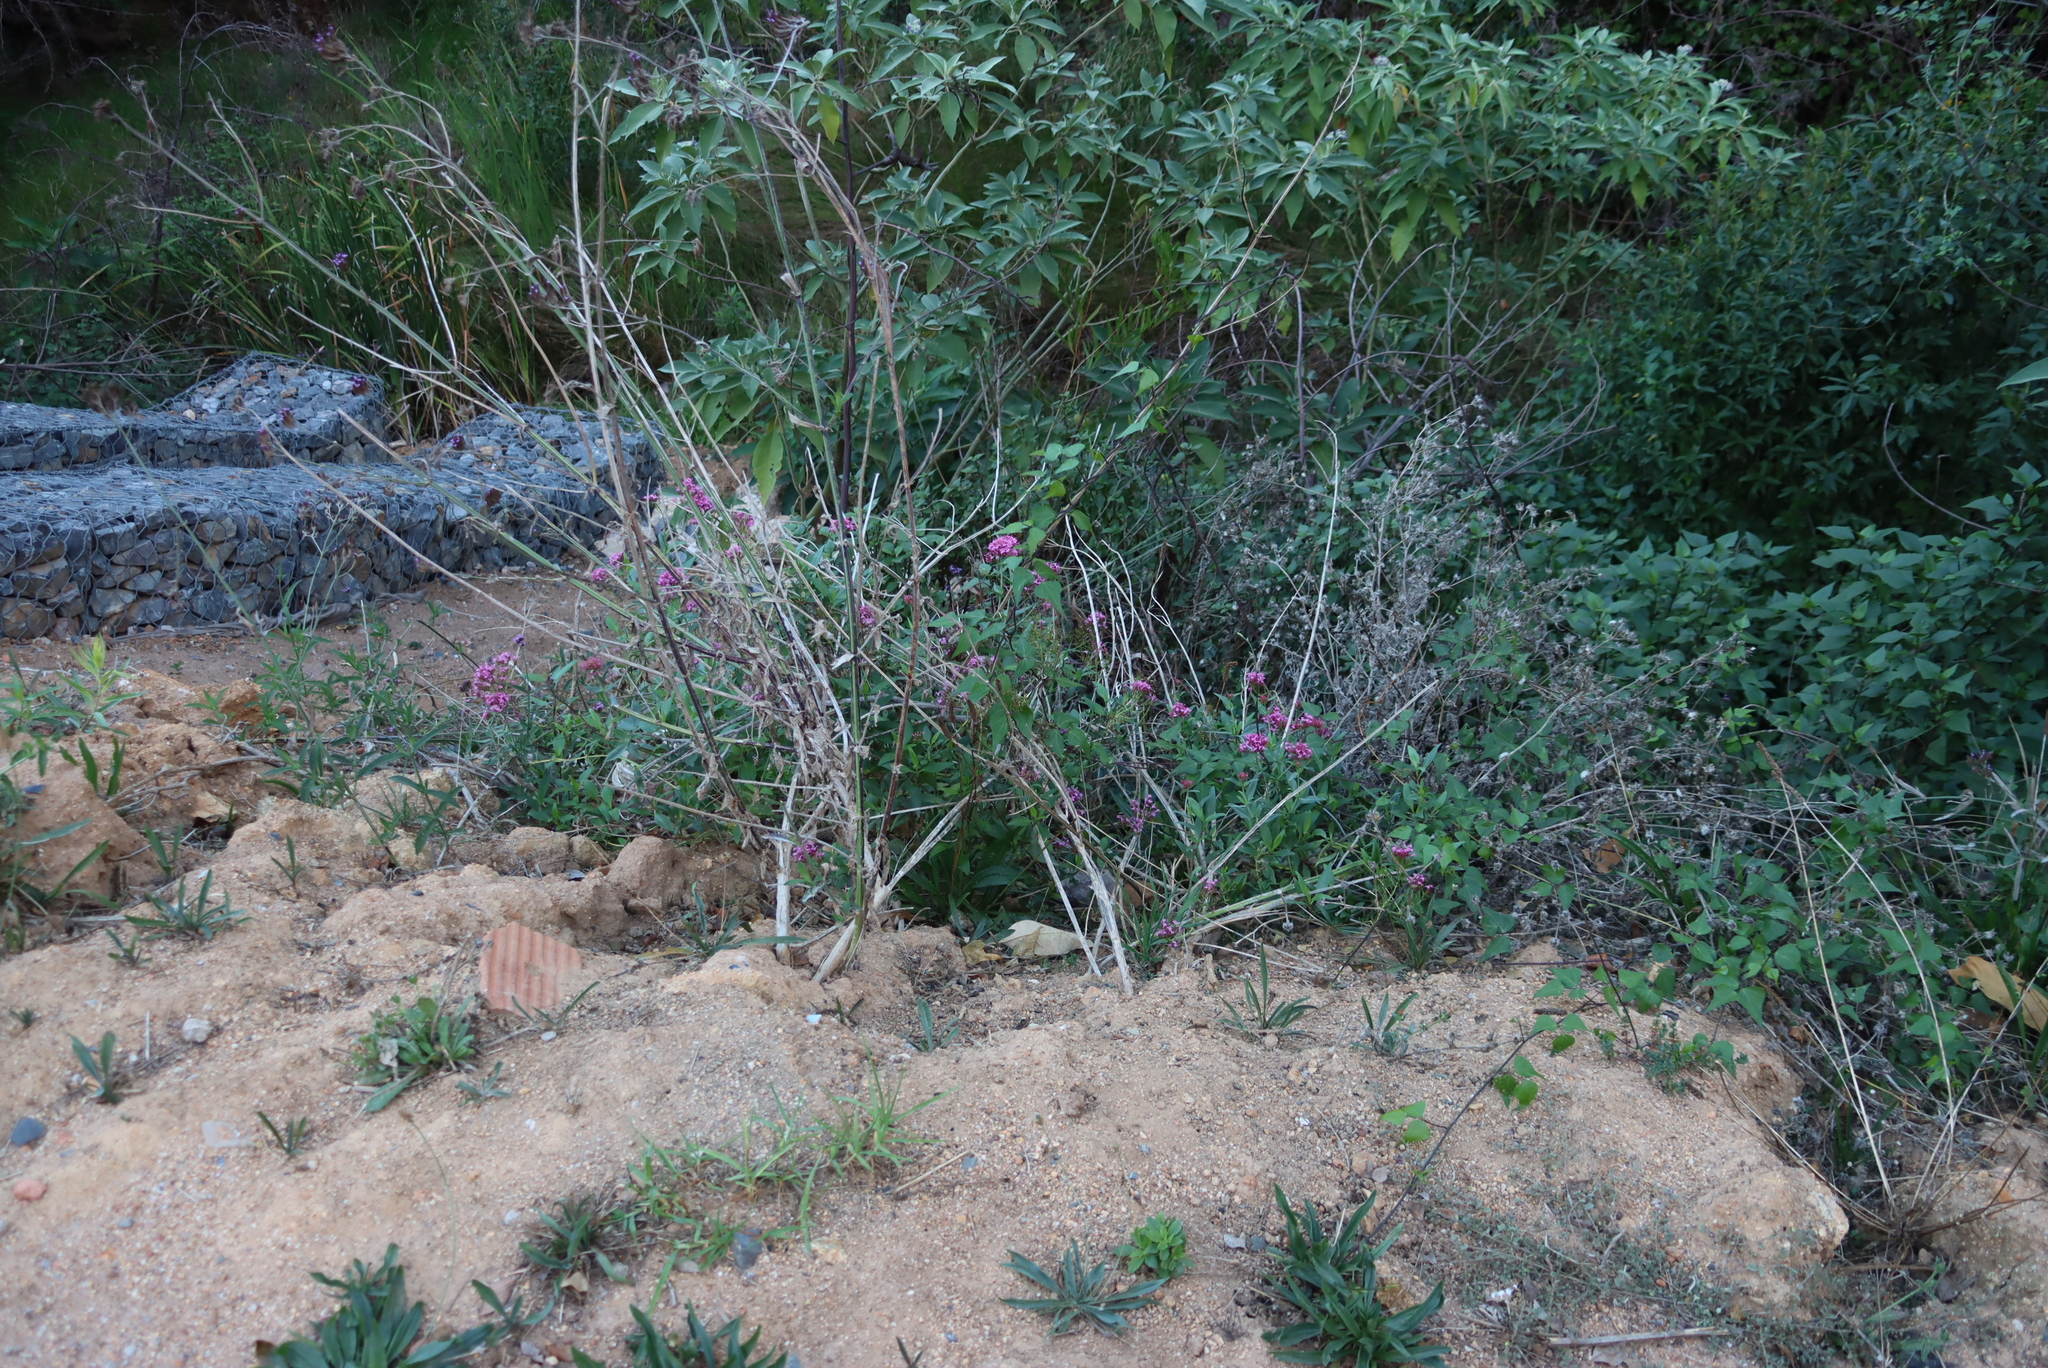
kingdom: Plantae
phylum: Tracheophyta
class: Magnoliopsida
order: Dipsacales
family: Caprifoliaceae
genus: Centranthus
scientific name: Centranthus ruber
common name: Red valerian
